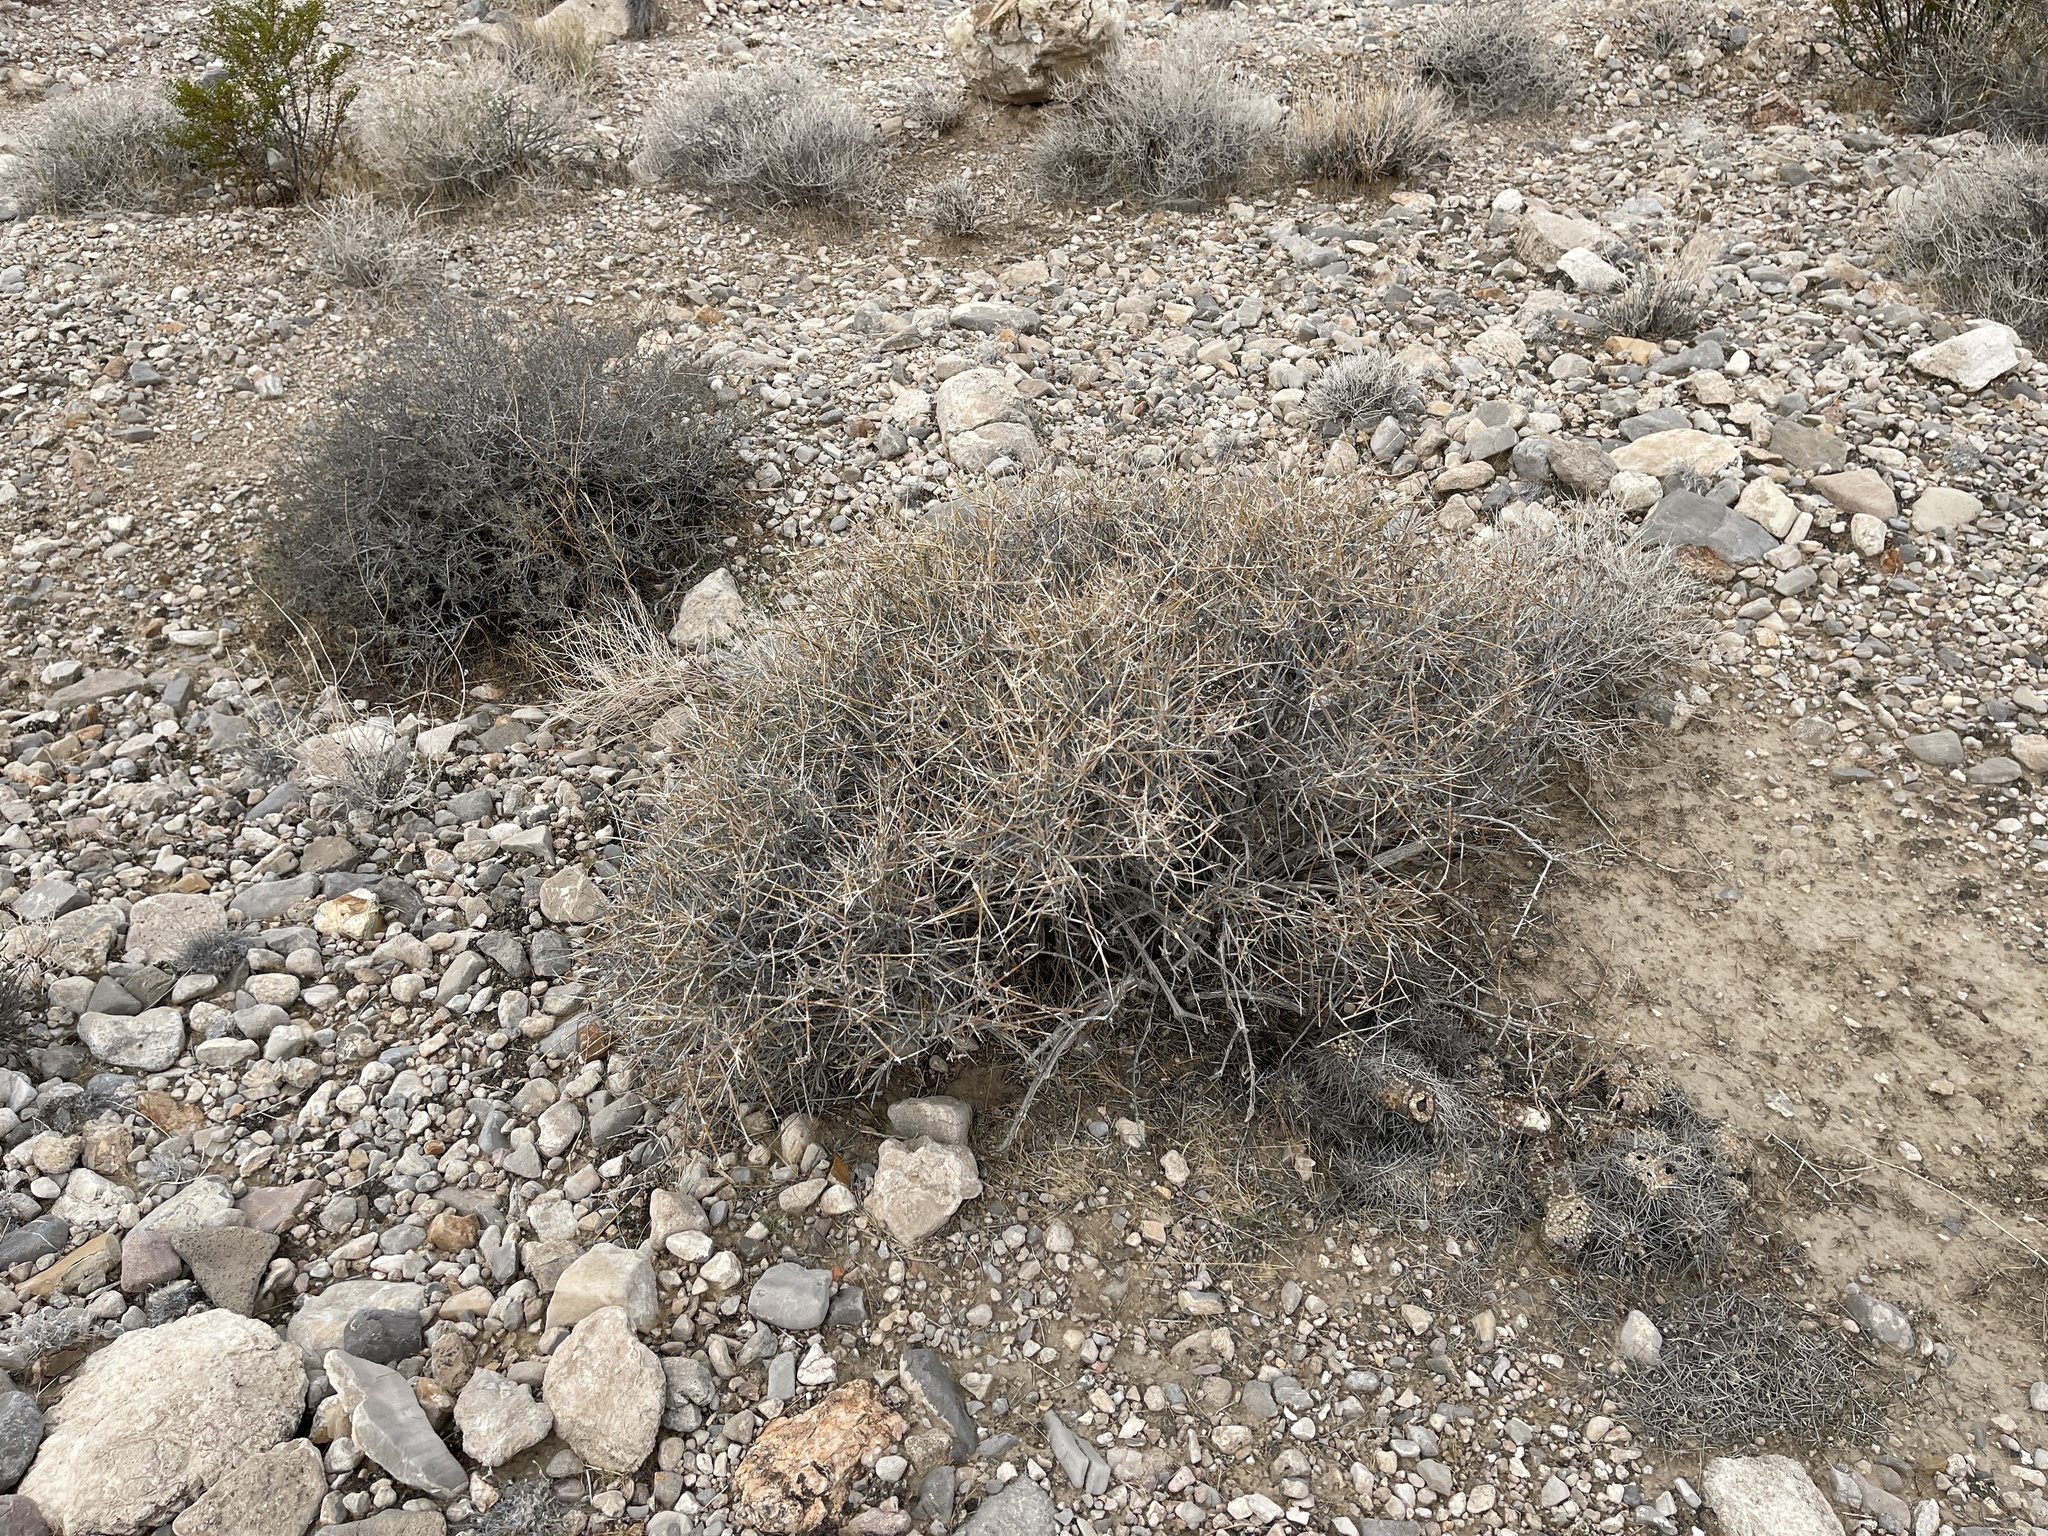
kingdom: Plantae
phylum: Tracheophyta
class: Gnetopsida
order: Ephedrales
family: Ephedraceae
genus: Ephedra
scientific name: Ephedra nevadensis
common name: Gray ephedra
